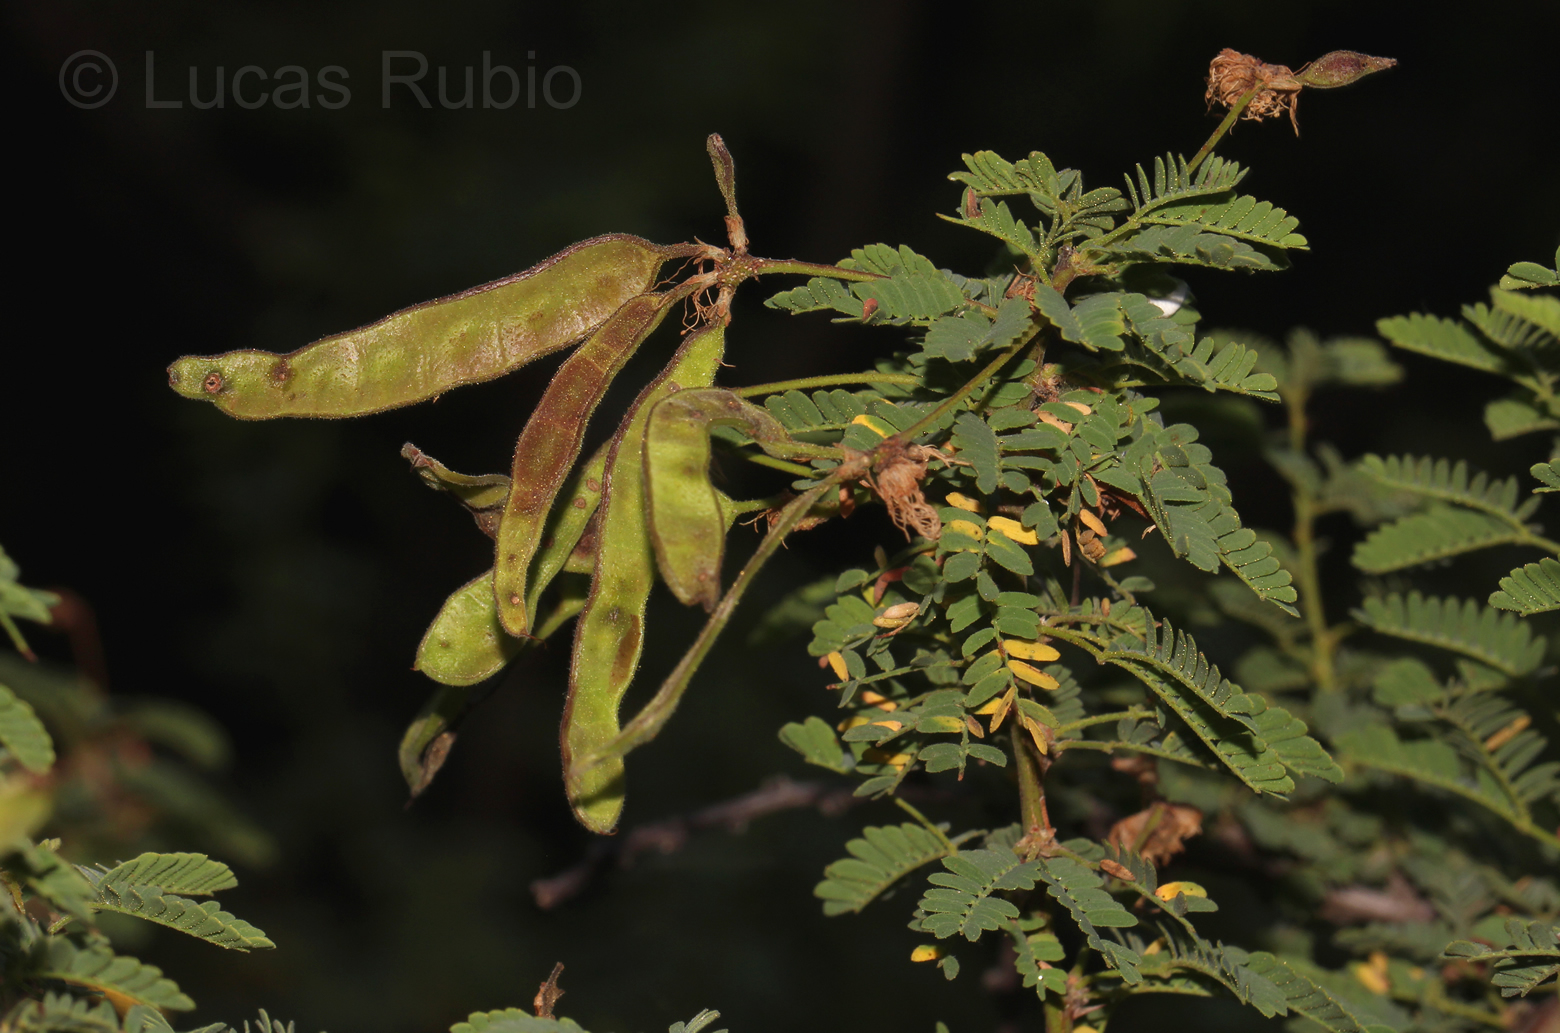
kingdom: Plantae
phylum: Tracheophyta
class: Magnoliopsida
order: Fabales
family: Fabaceae
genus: Mimosa
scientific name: Mimosa farinosa
